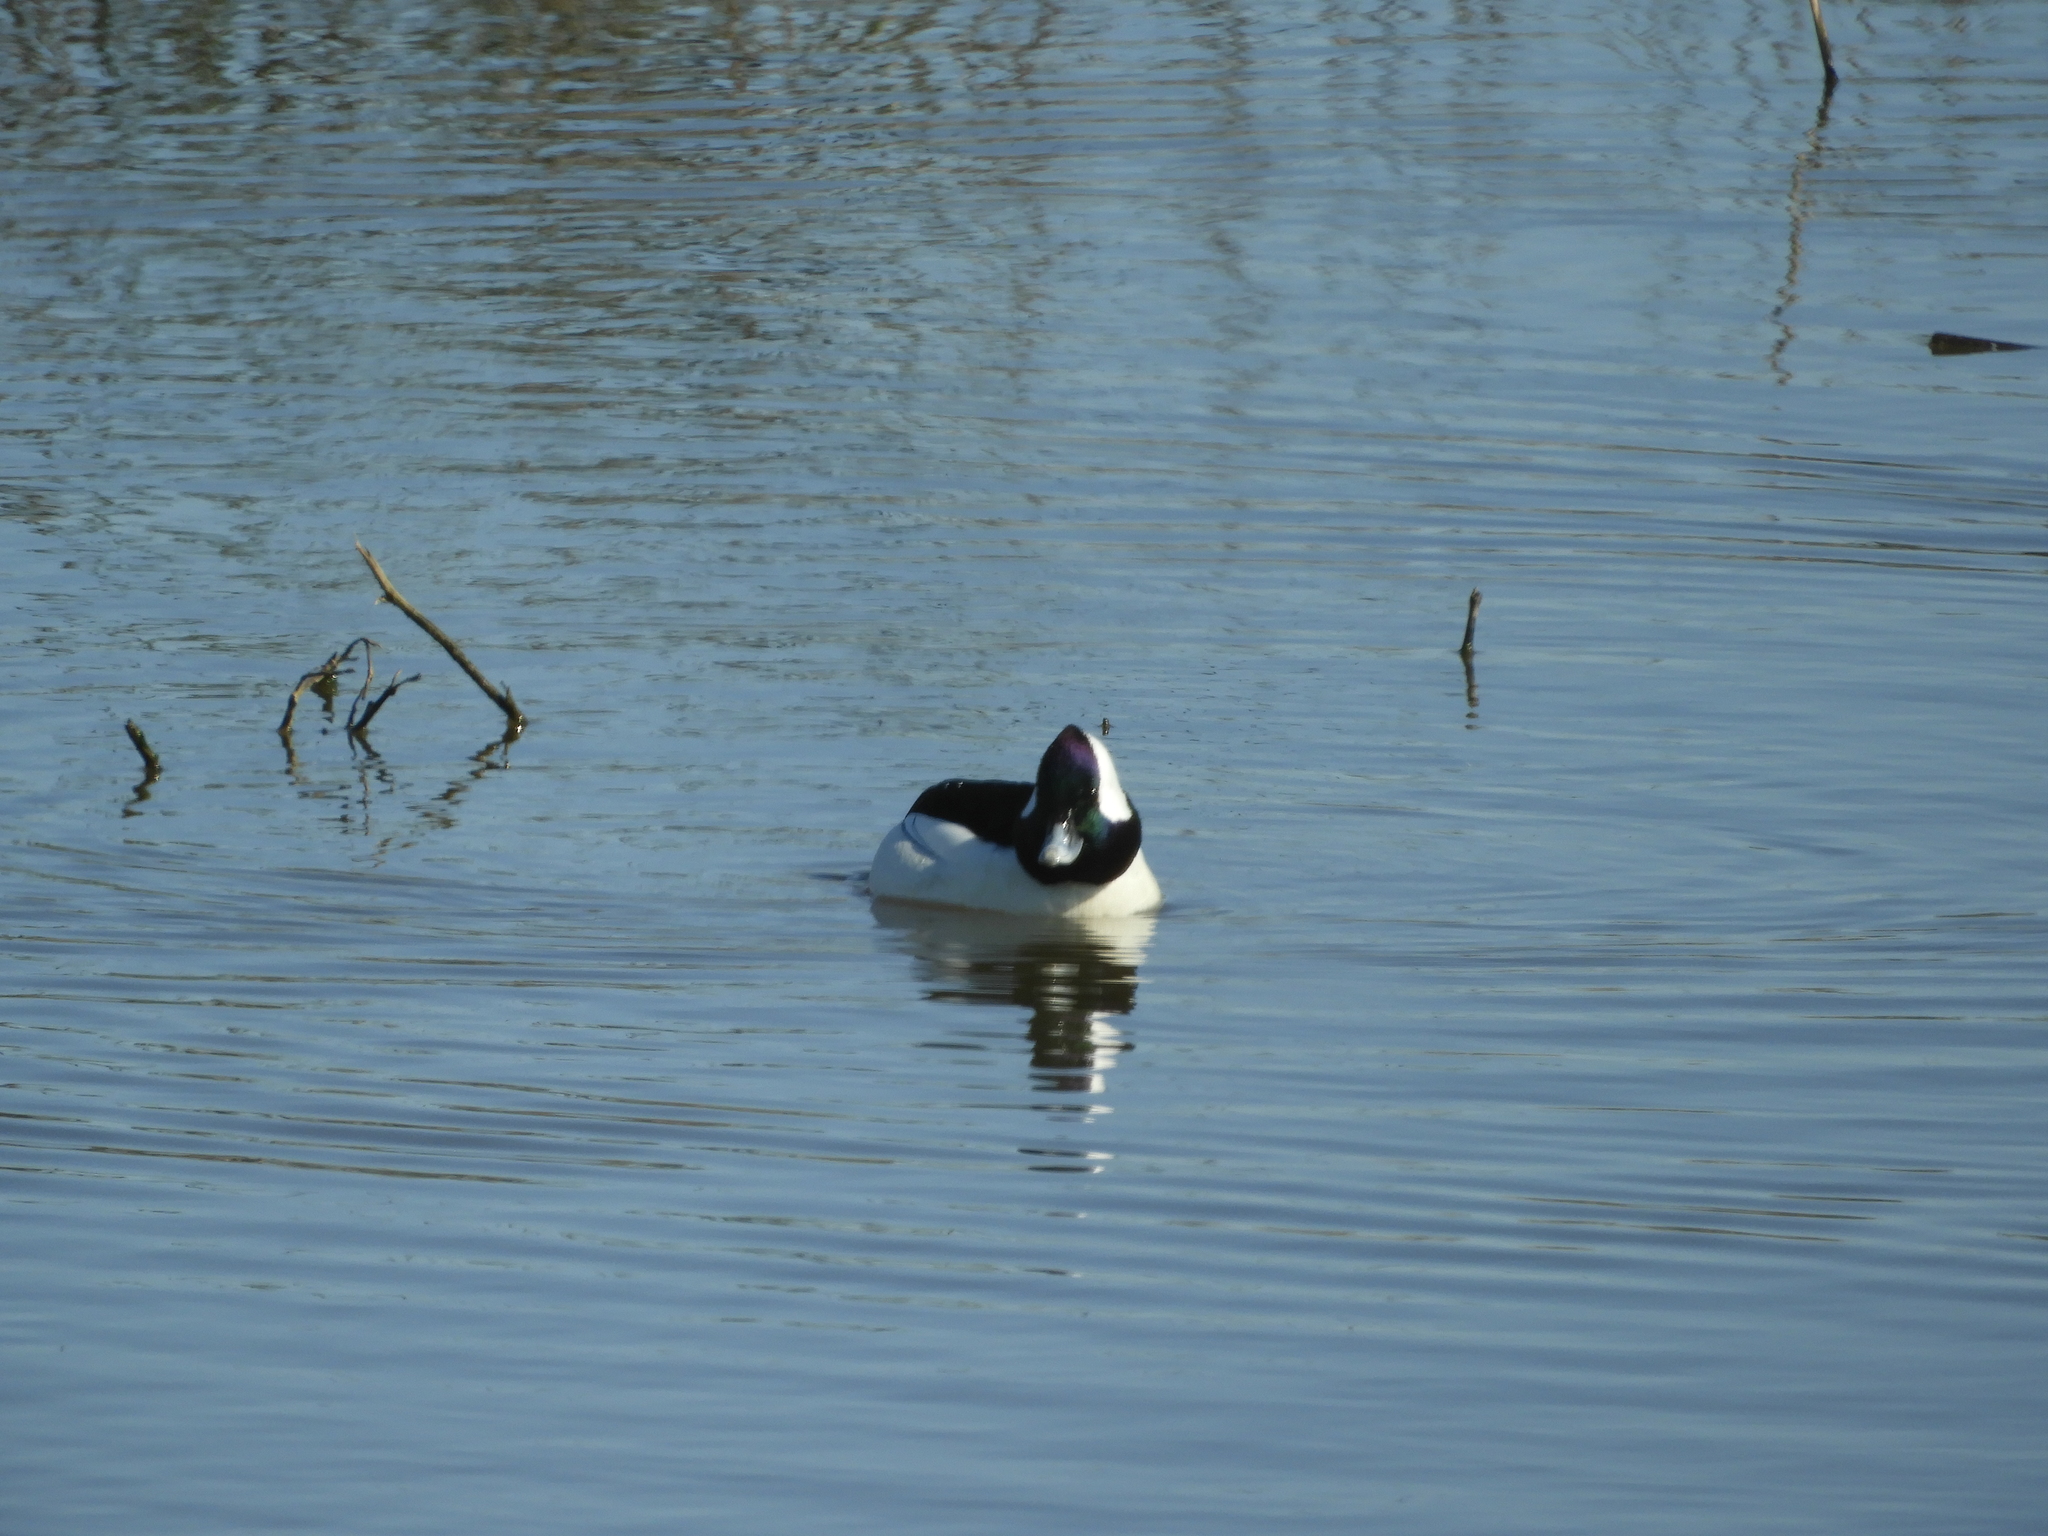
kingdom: Animalia
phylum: Chordata
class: Aves
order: Anseriformes
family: Anatidae
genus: Bucephala
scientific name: Bucephala albeola
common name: Bufflehead
